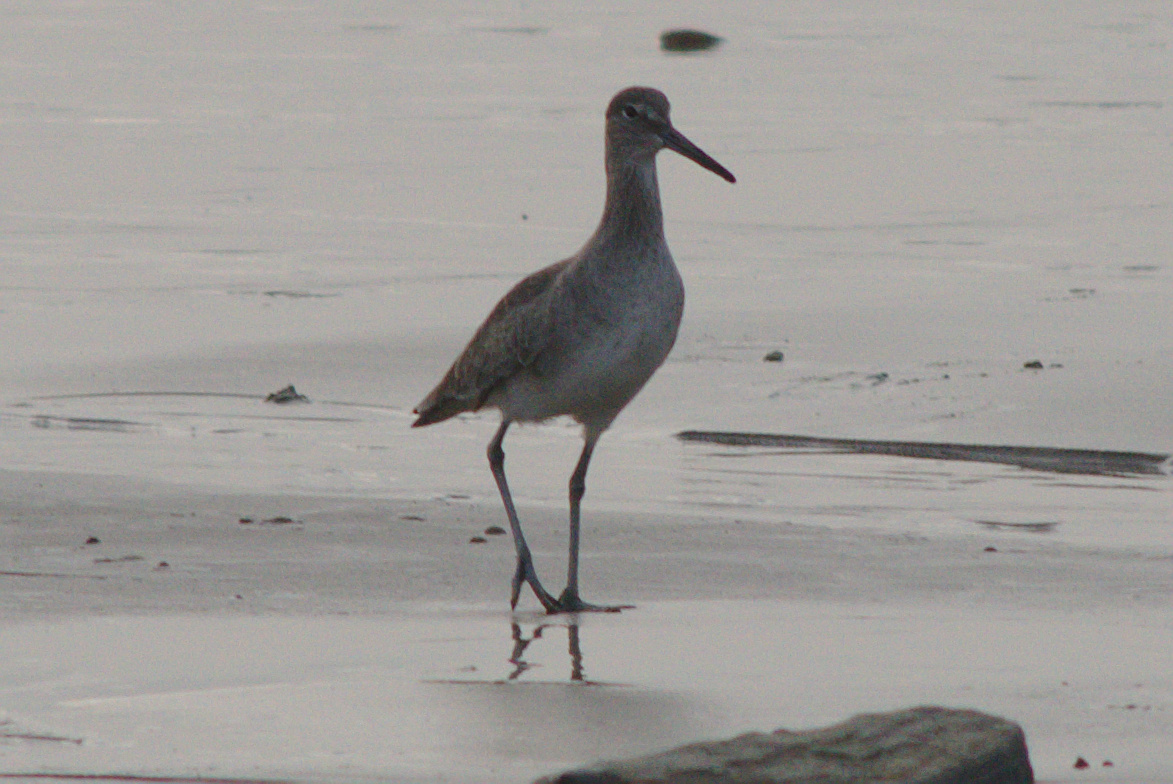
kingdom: Animalia
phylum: Chordata
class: Aves
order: Charadriiformes
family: Scolopacidae
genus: Tringa
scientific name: Tringa semipalmata
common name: Willet
